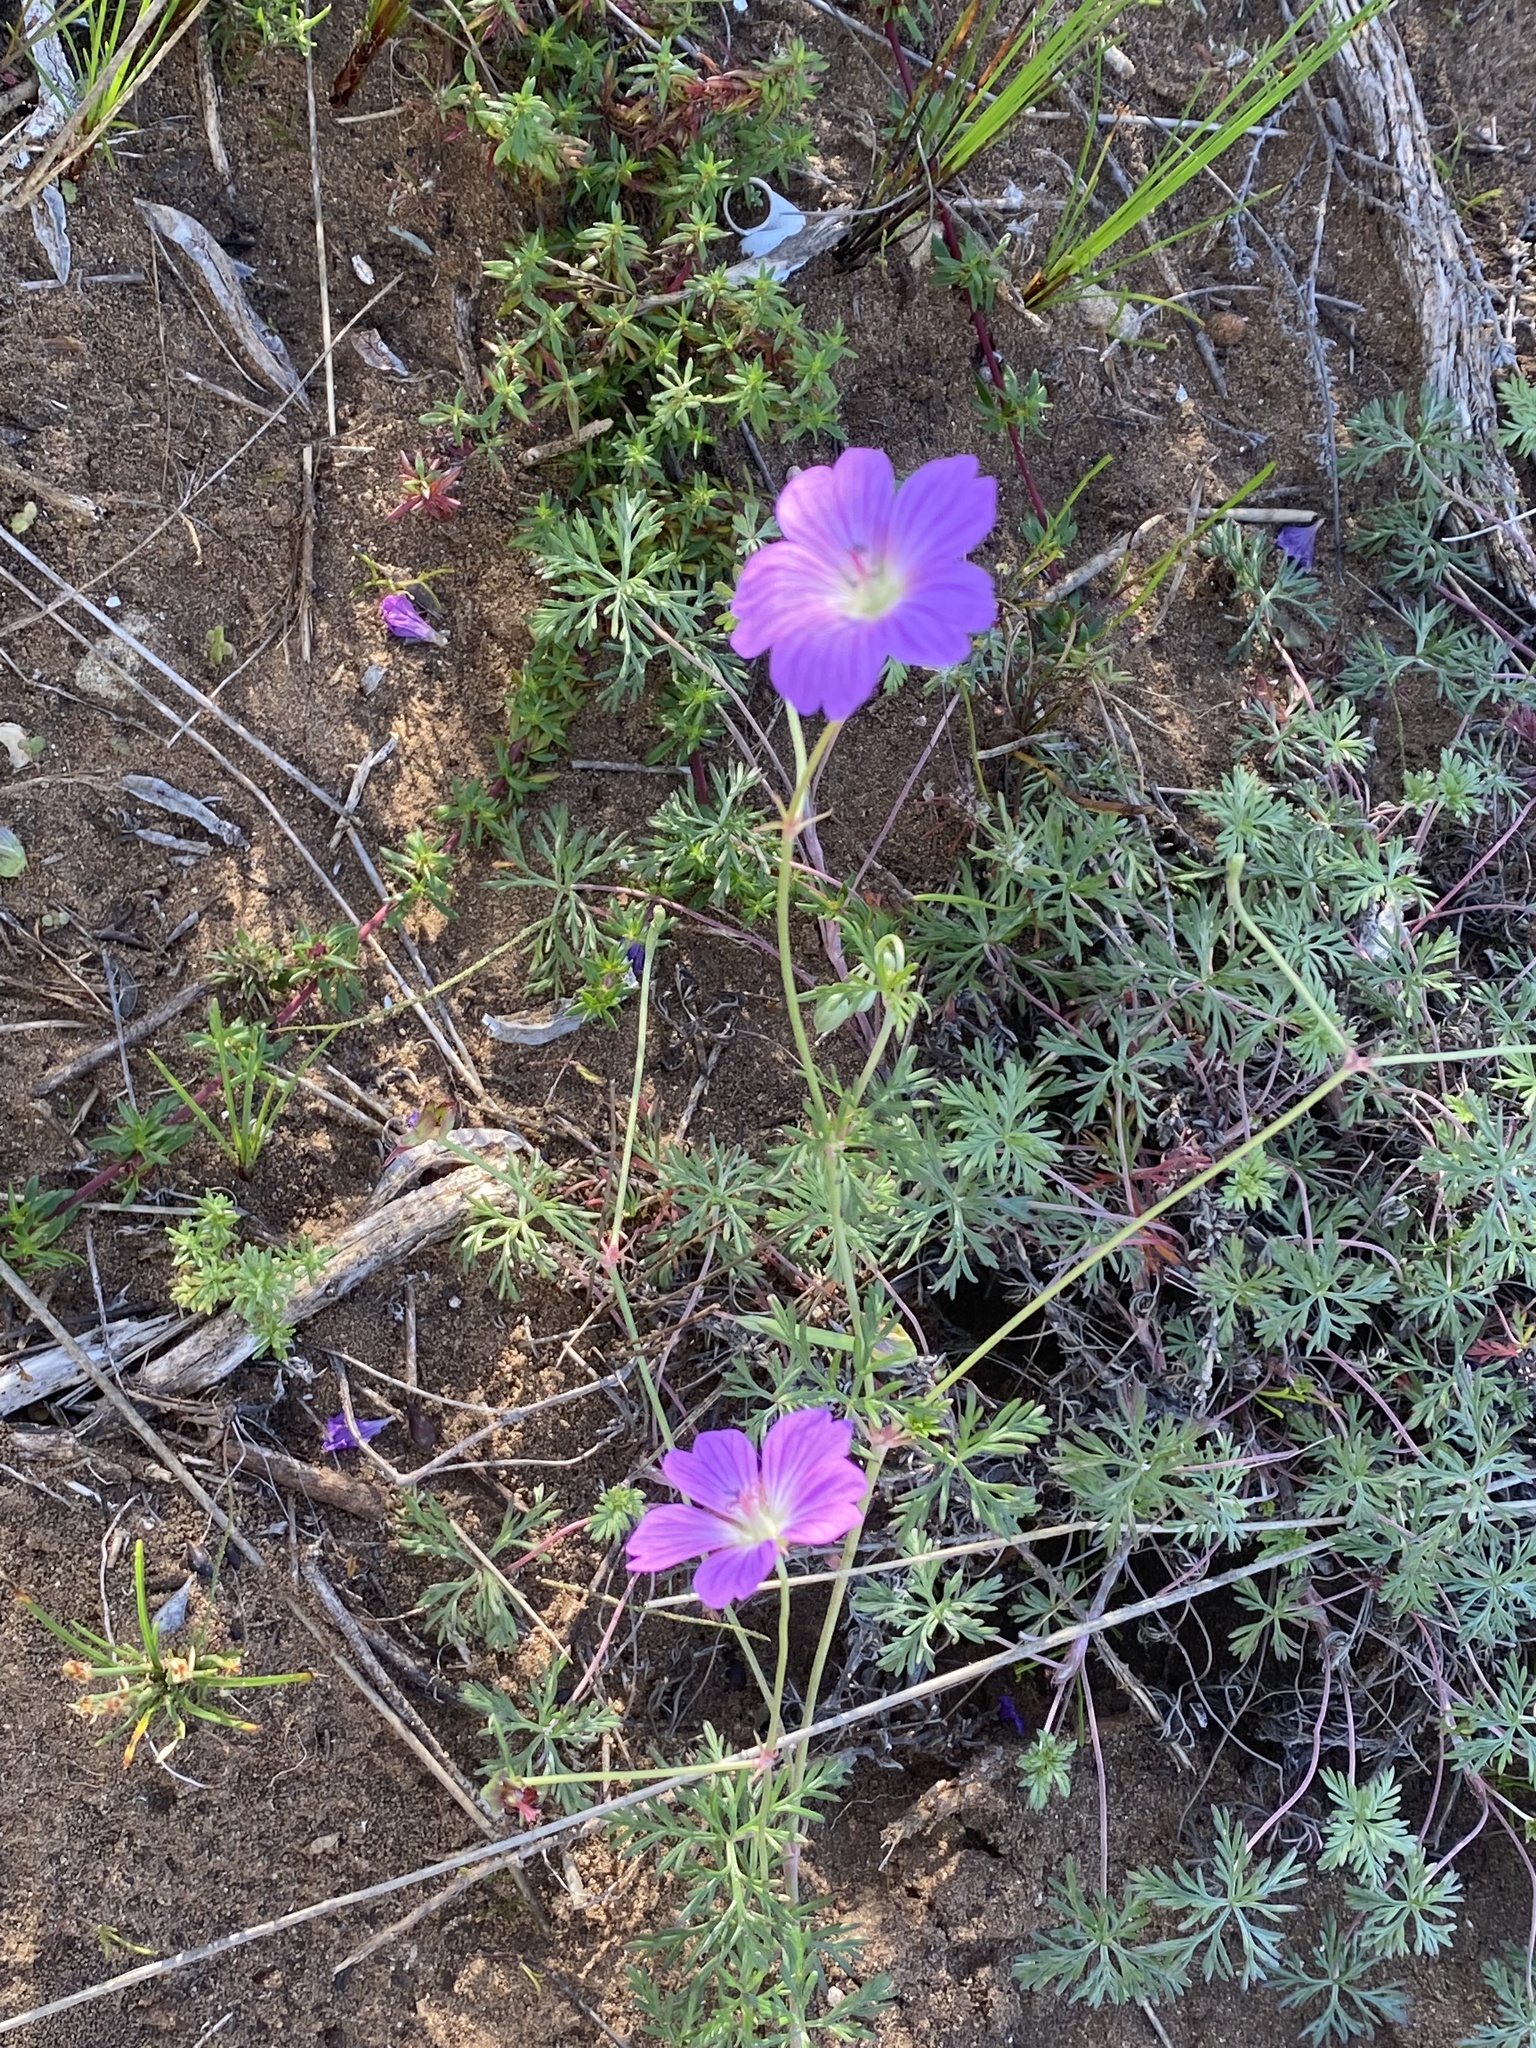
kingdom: Plantae
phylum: Tracheophyta
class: Magnoliopsida
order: Geraniales
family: Geraniaceae
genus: Geranium
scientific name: Geranium incanum
